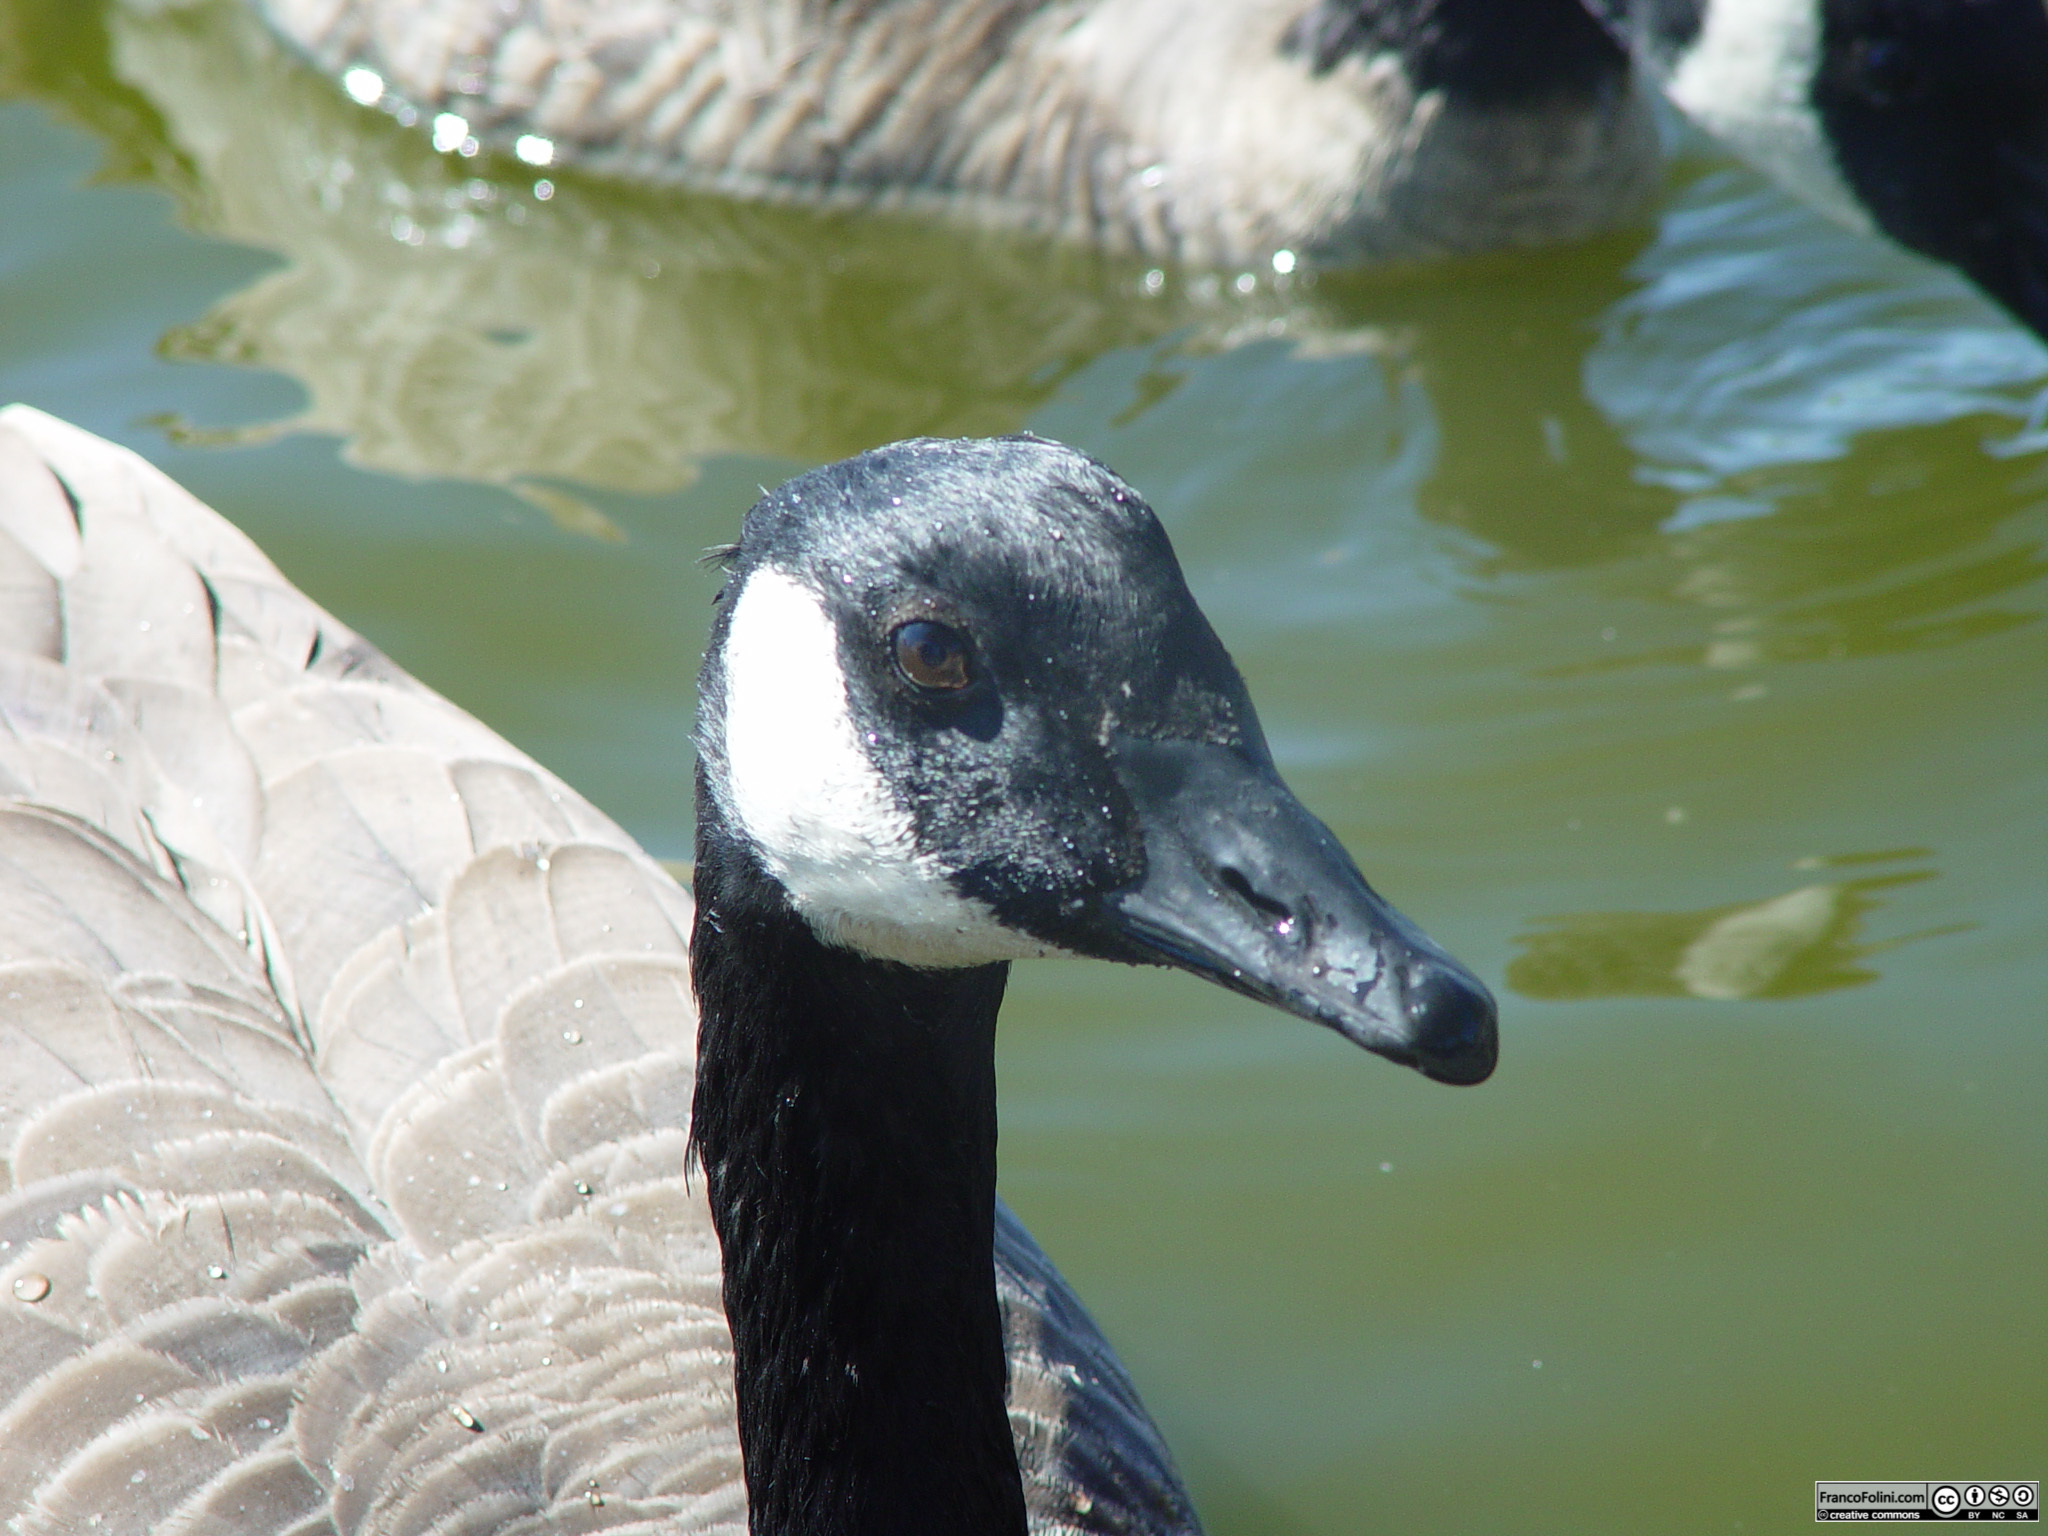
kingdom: Animalia
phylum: Chordata
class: Aves
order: Anseriformes
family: Anatidae
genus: Branta
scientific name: Branta canadensis
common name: Canada goose
